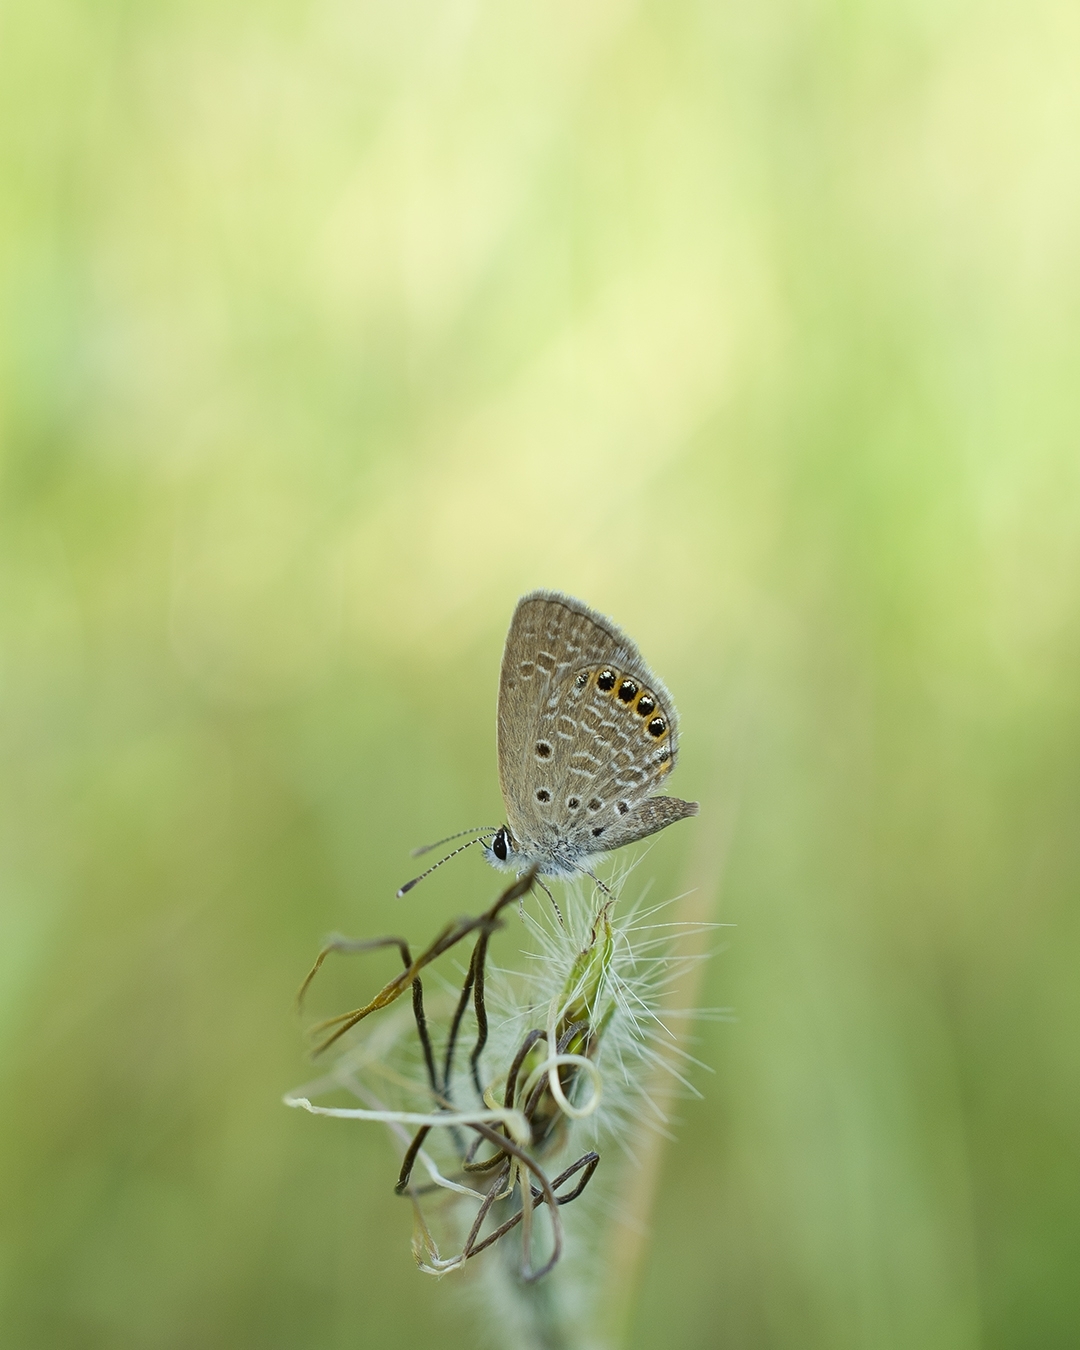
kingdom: Animalia
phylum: Arthropoda
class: Insecta
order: Lepidoptera
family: Lycaenidae
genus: Freyeria
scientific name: Freyeria putli
